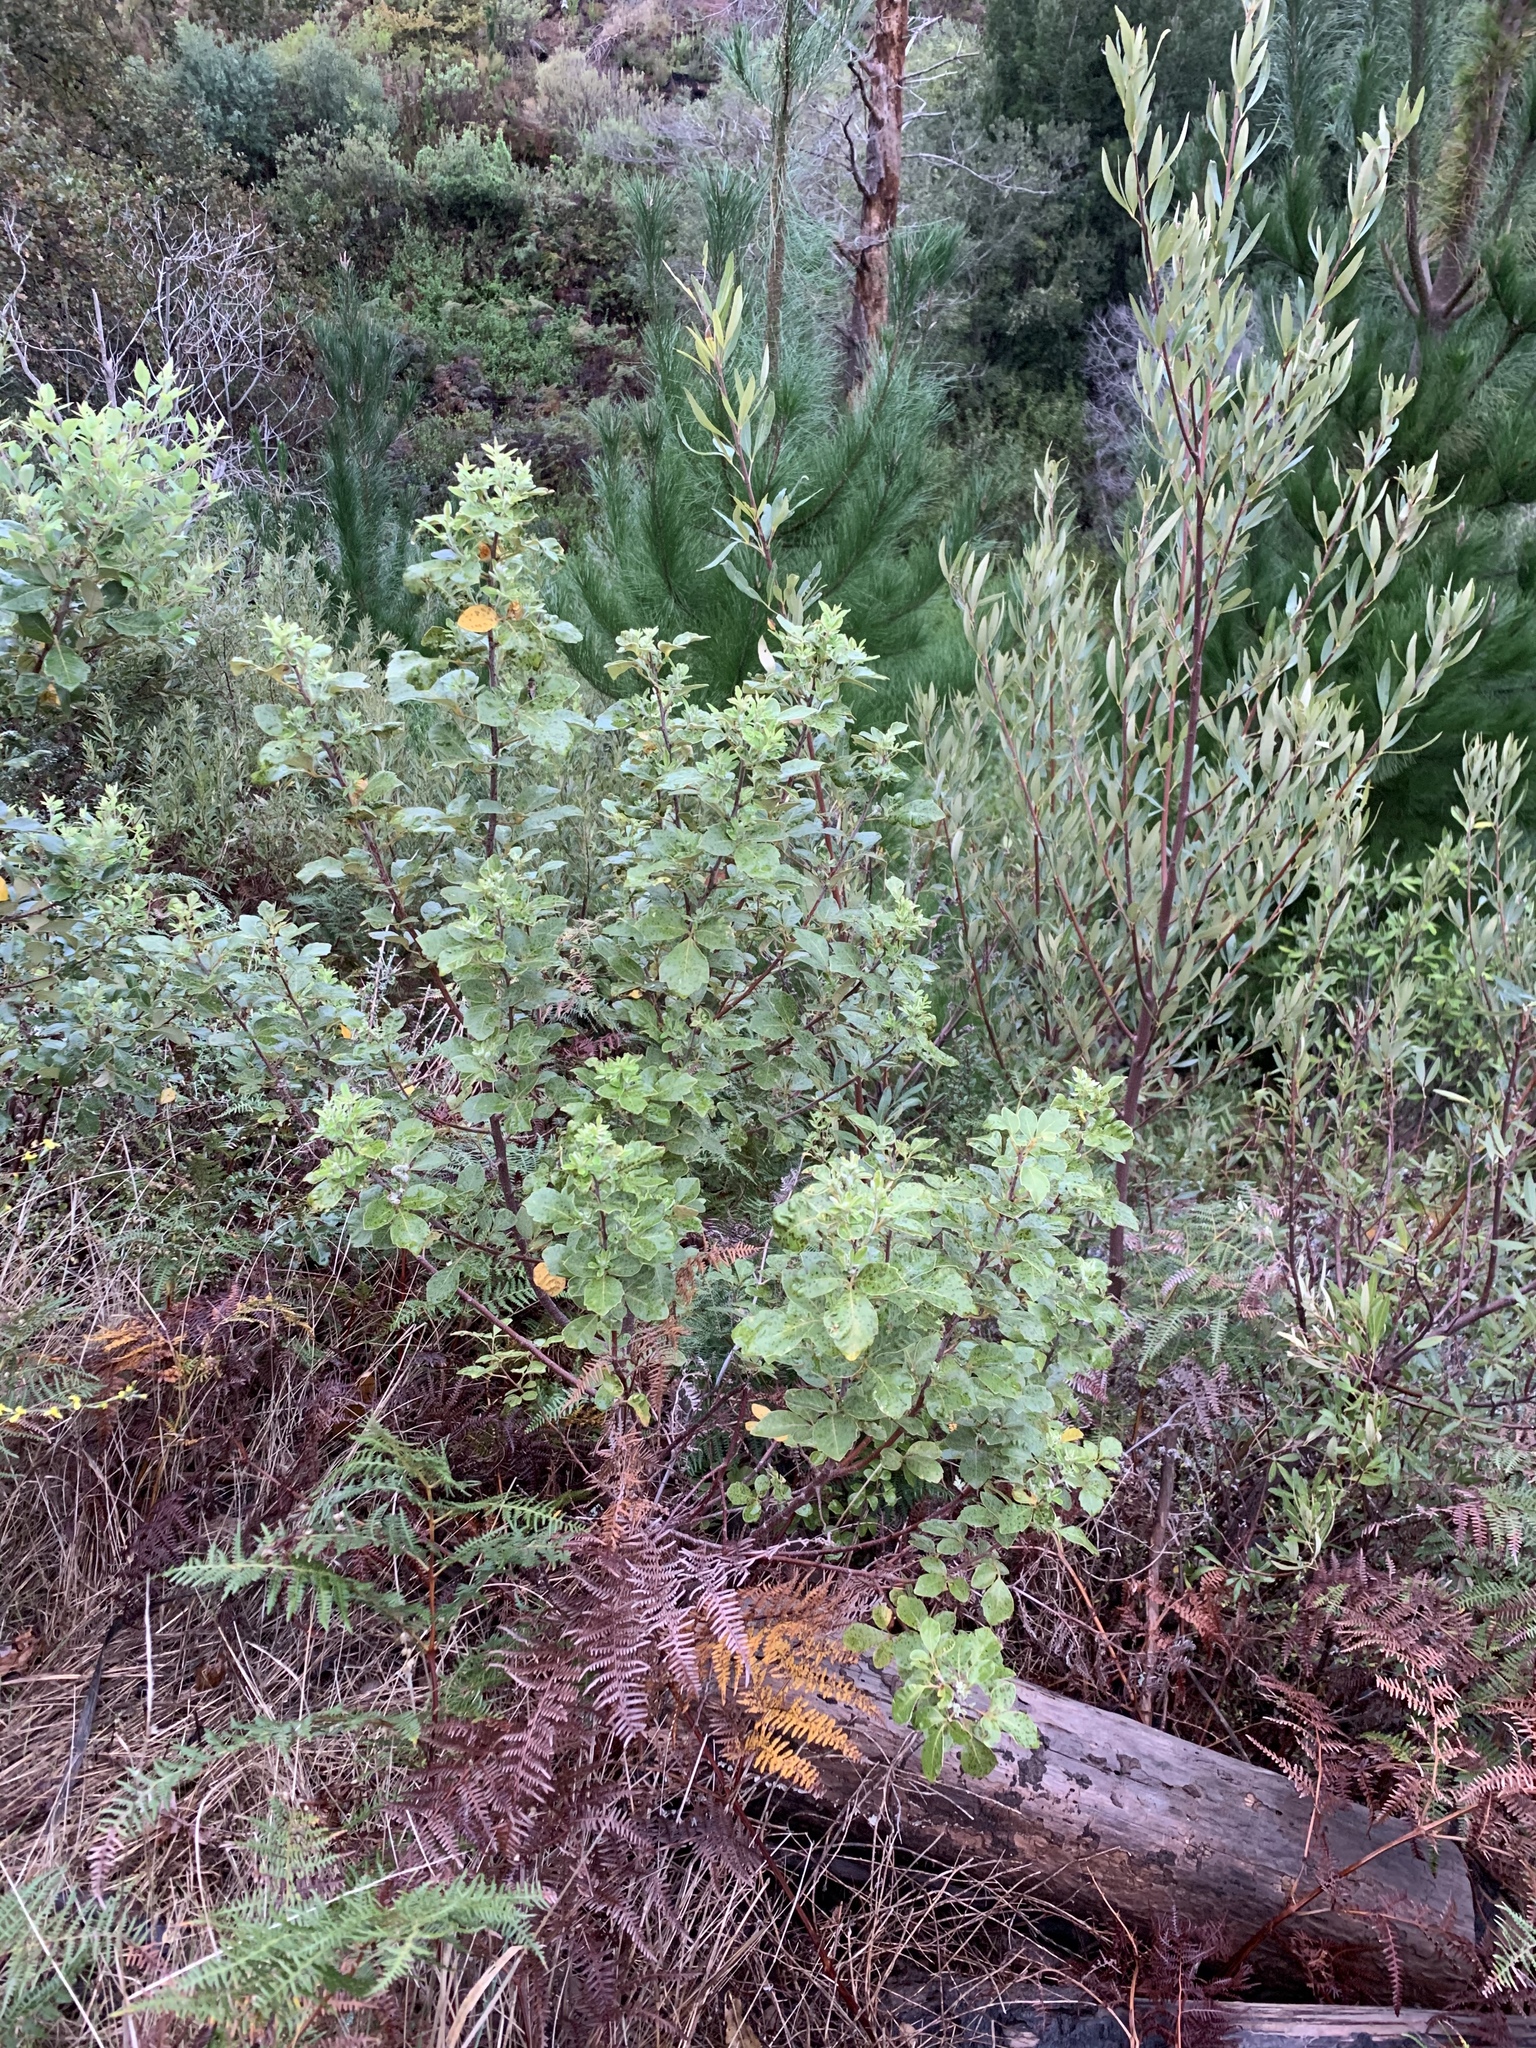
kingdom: Plantae
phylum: Tracheophyta
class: Magnoliopsida
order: Sapindales
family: Anacardiaceae
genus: Searsia
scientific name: Searsia tomentosa
